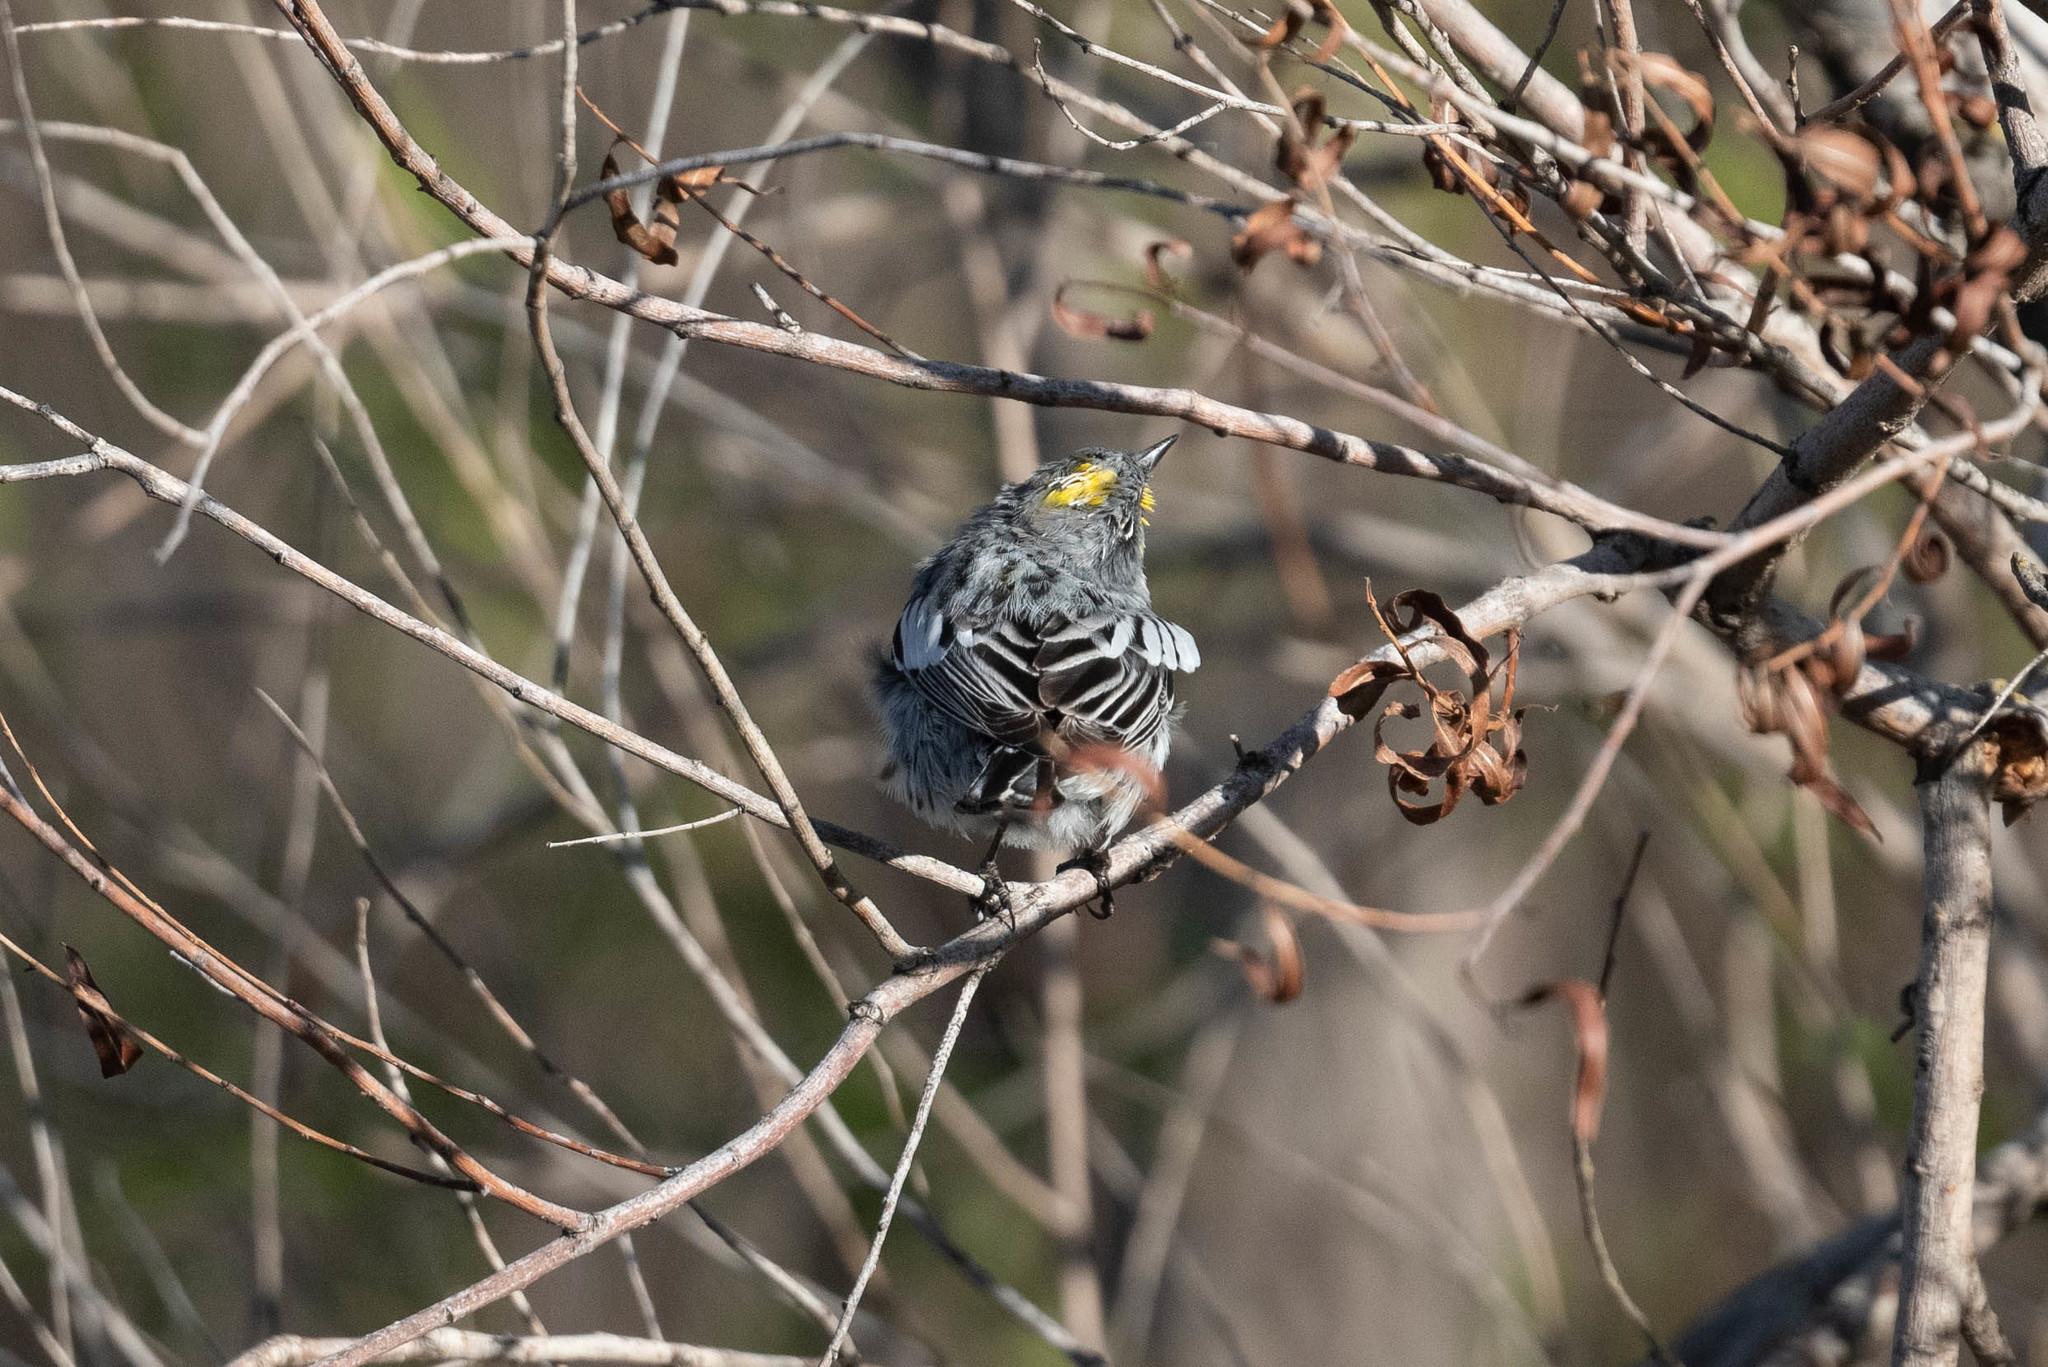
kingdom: Animalia
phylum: Chordata
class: Aves
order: Passeriformes
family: Parulidae
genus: Setophaga
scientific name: Setophaga coronata
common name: Myrtle warbler
